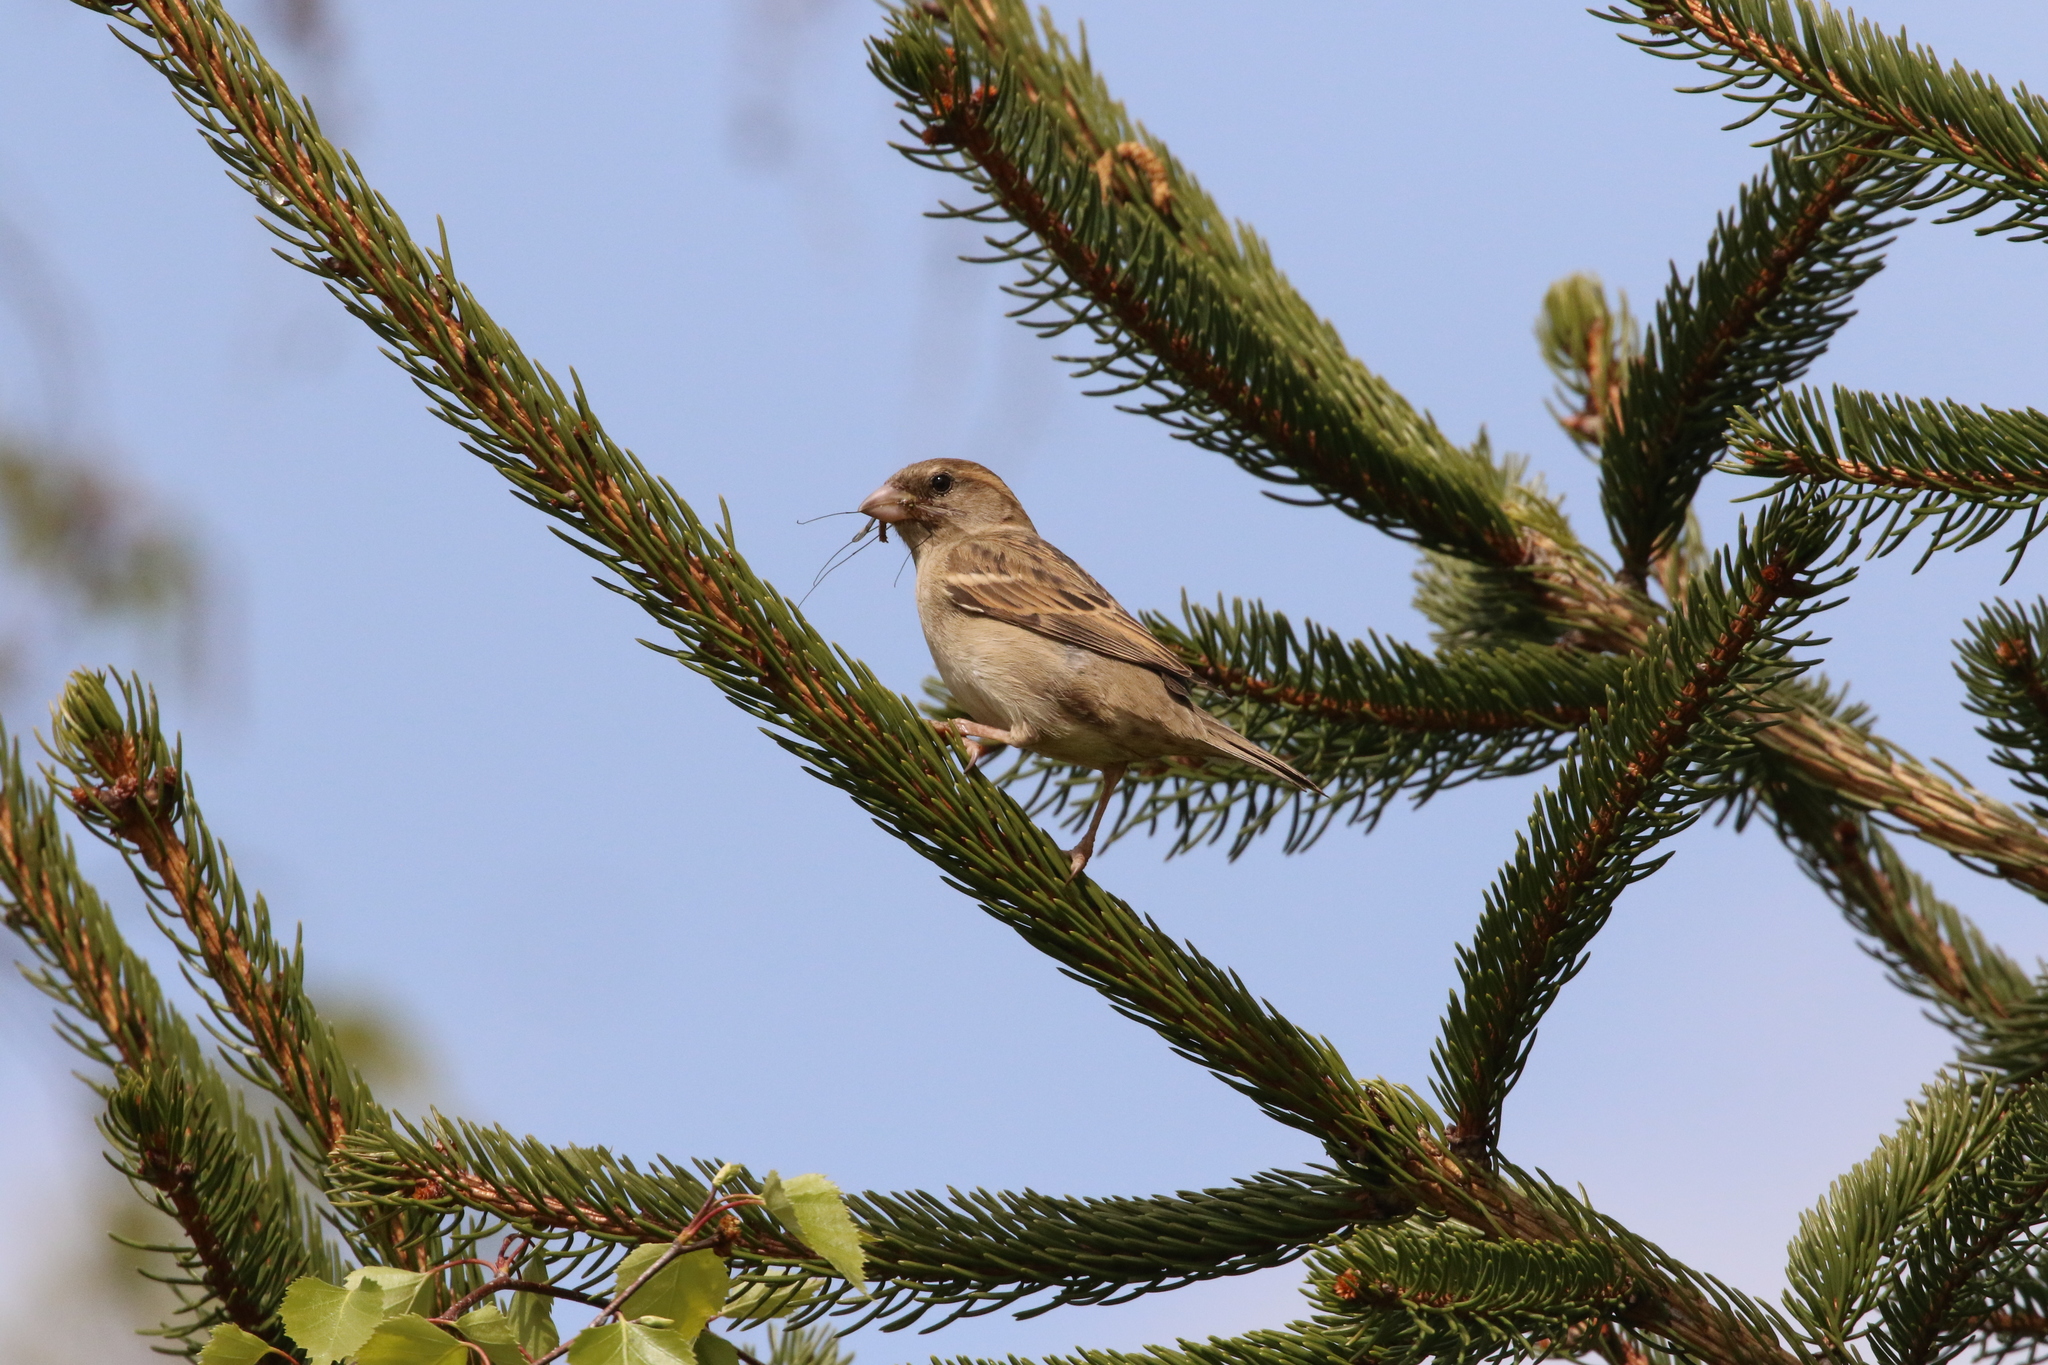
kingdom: Animalia
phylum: Chordata
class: Aves
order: Passeriformes
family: Passeridae
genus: Passer
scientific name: Passer domesticus
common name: House sparrow
